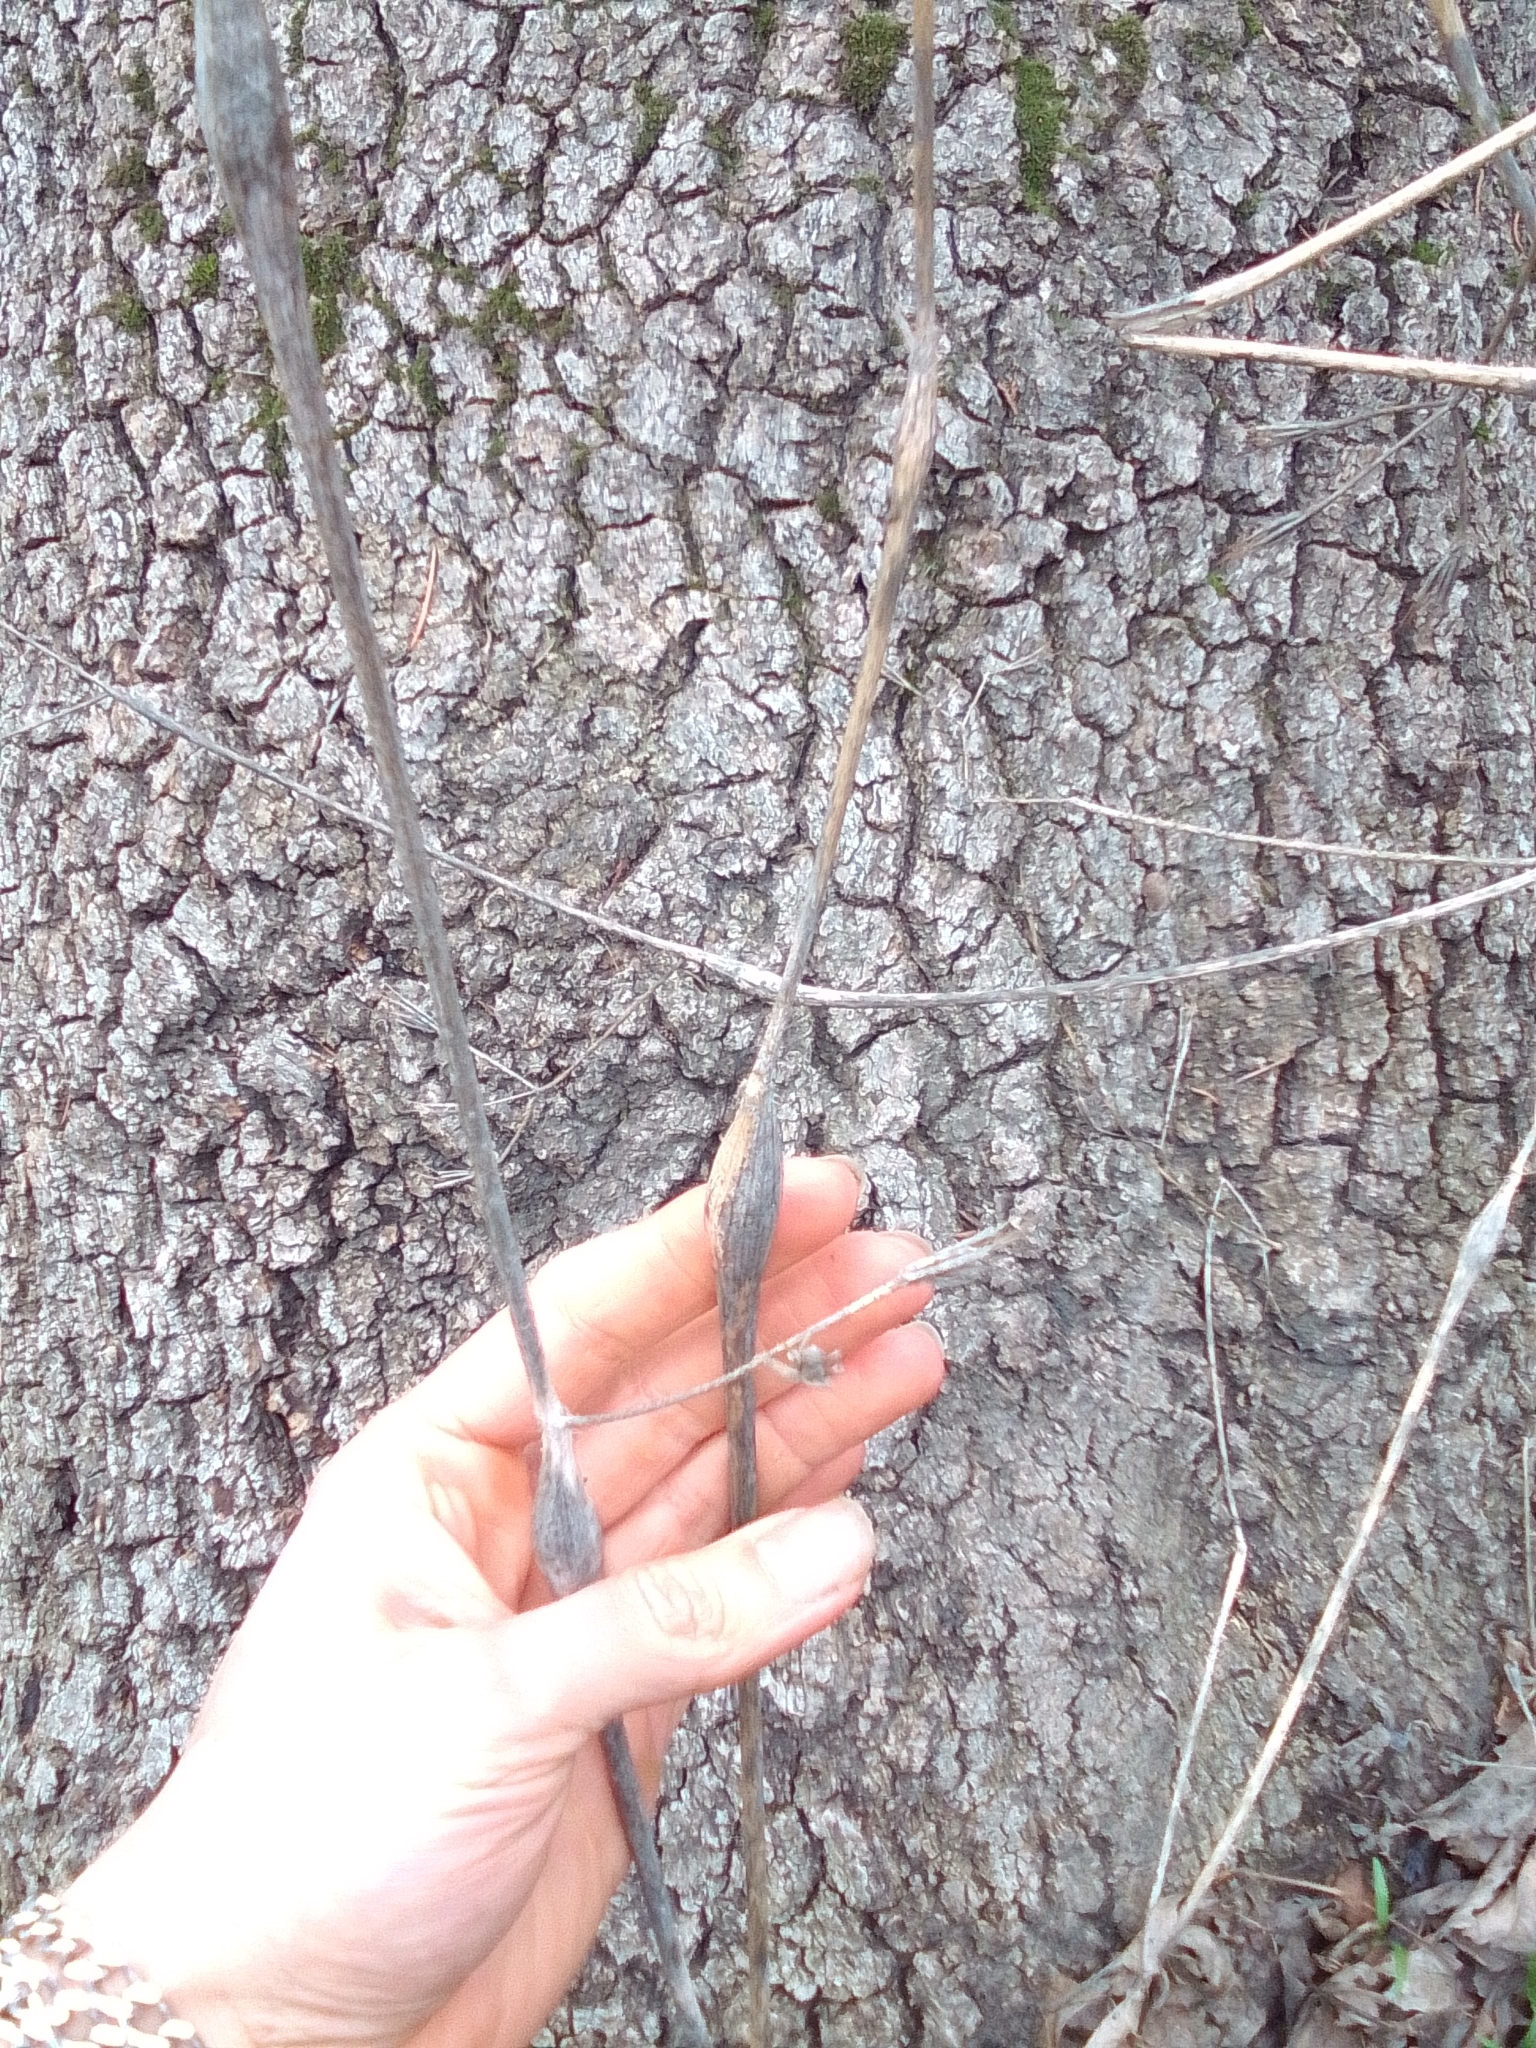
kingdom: Plantae
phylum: Tracheophyta
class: Magnoliopsida
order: Apiales
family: Apiaceae
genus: Chaerophyllum
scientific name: Chaerophyllum nodosum
